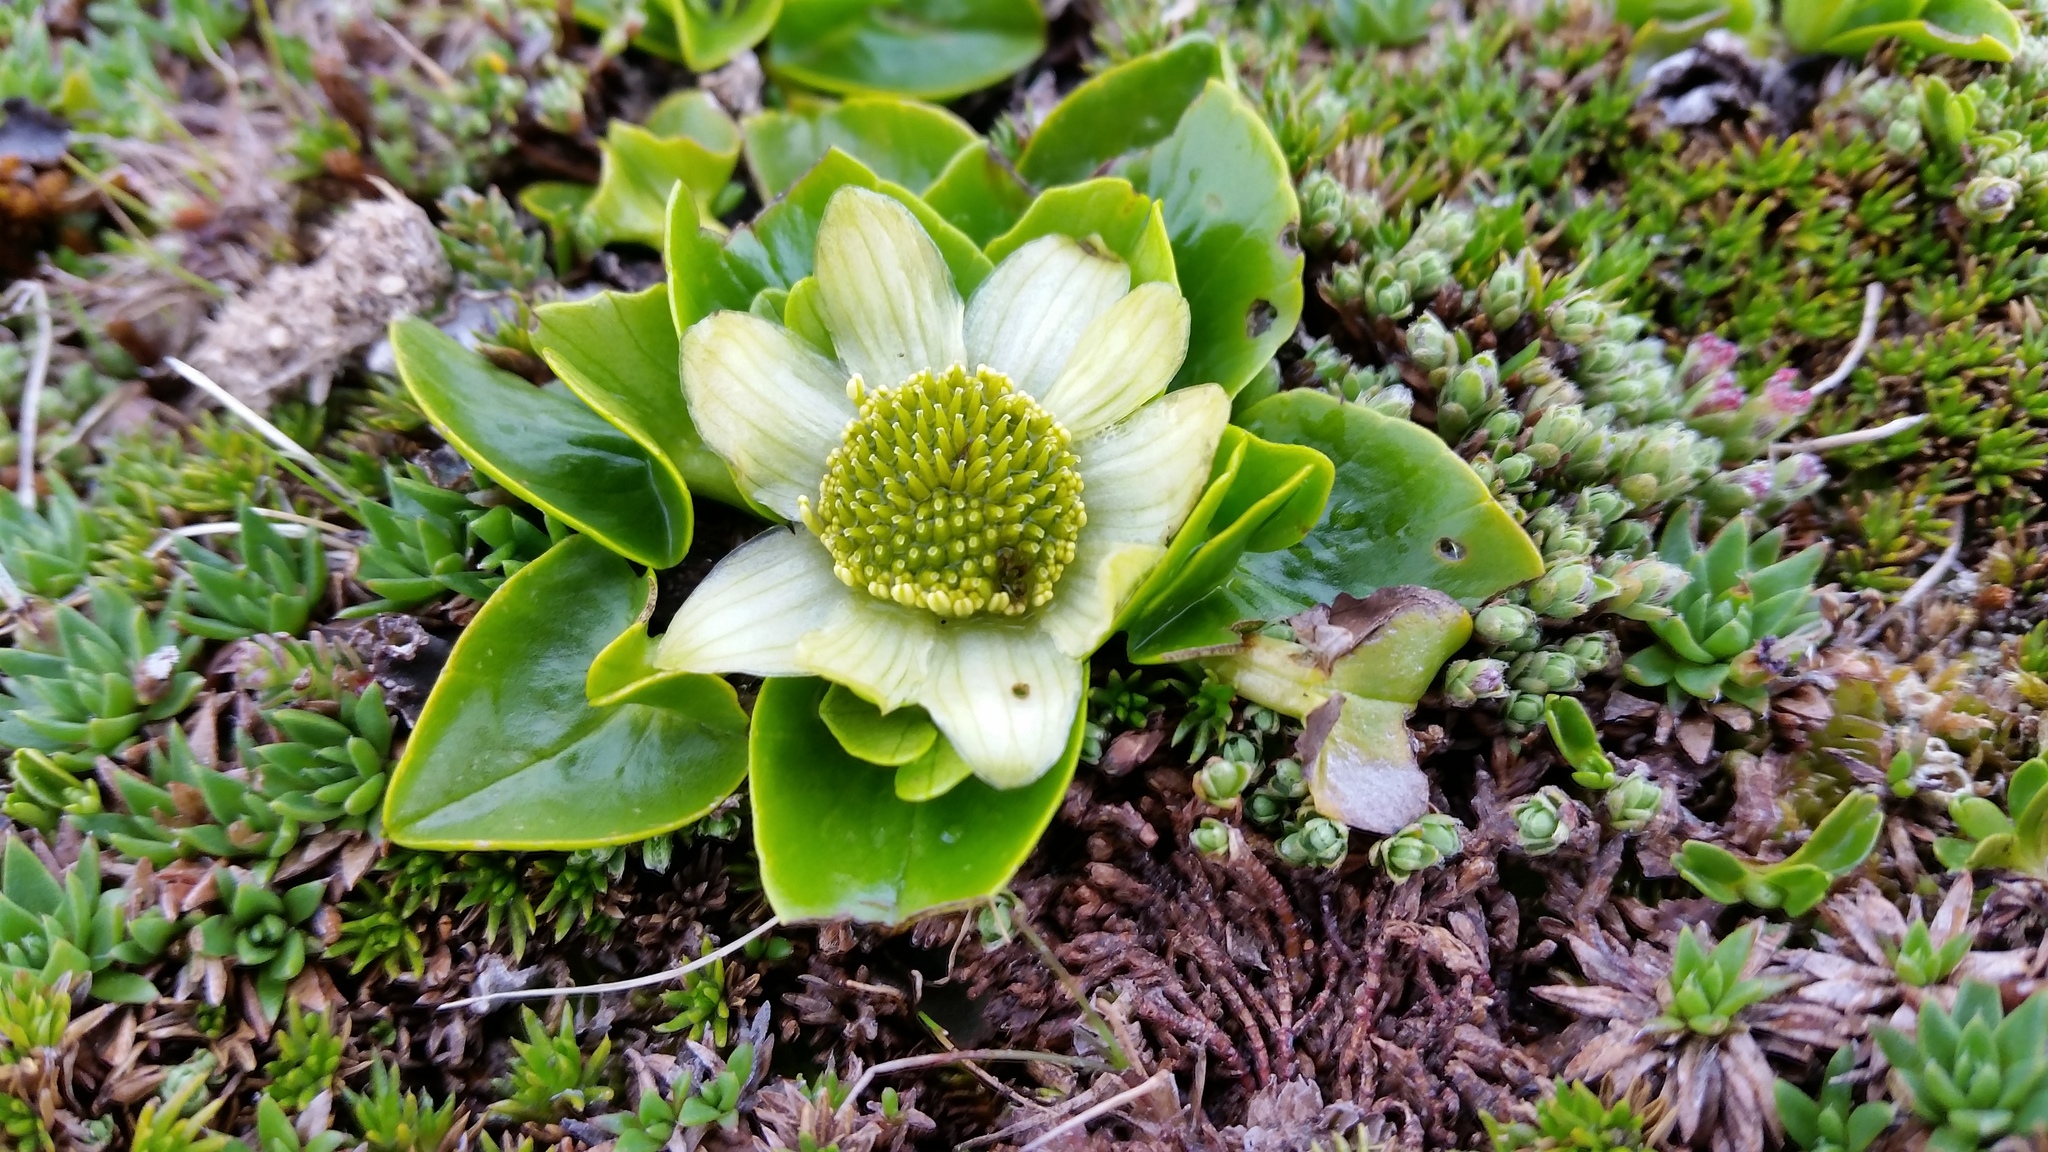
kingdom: Plantae
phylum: Tracheophyta
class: Magnoliopsida
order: Ranunculales
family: Ranunculaceae
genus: Caltha
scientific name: Caltha sagittata
